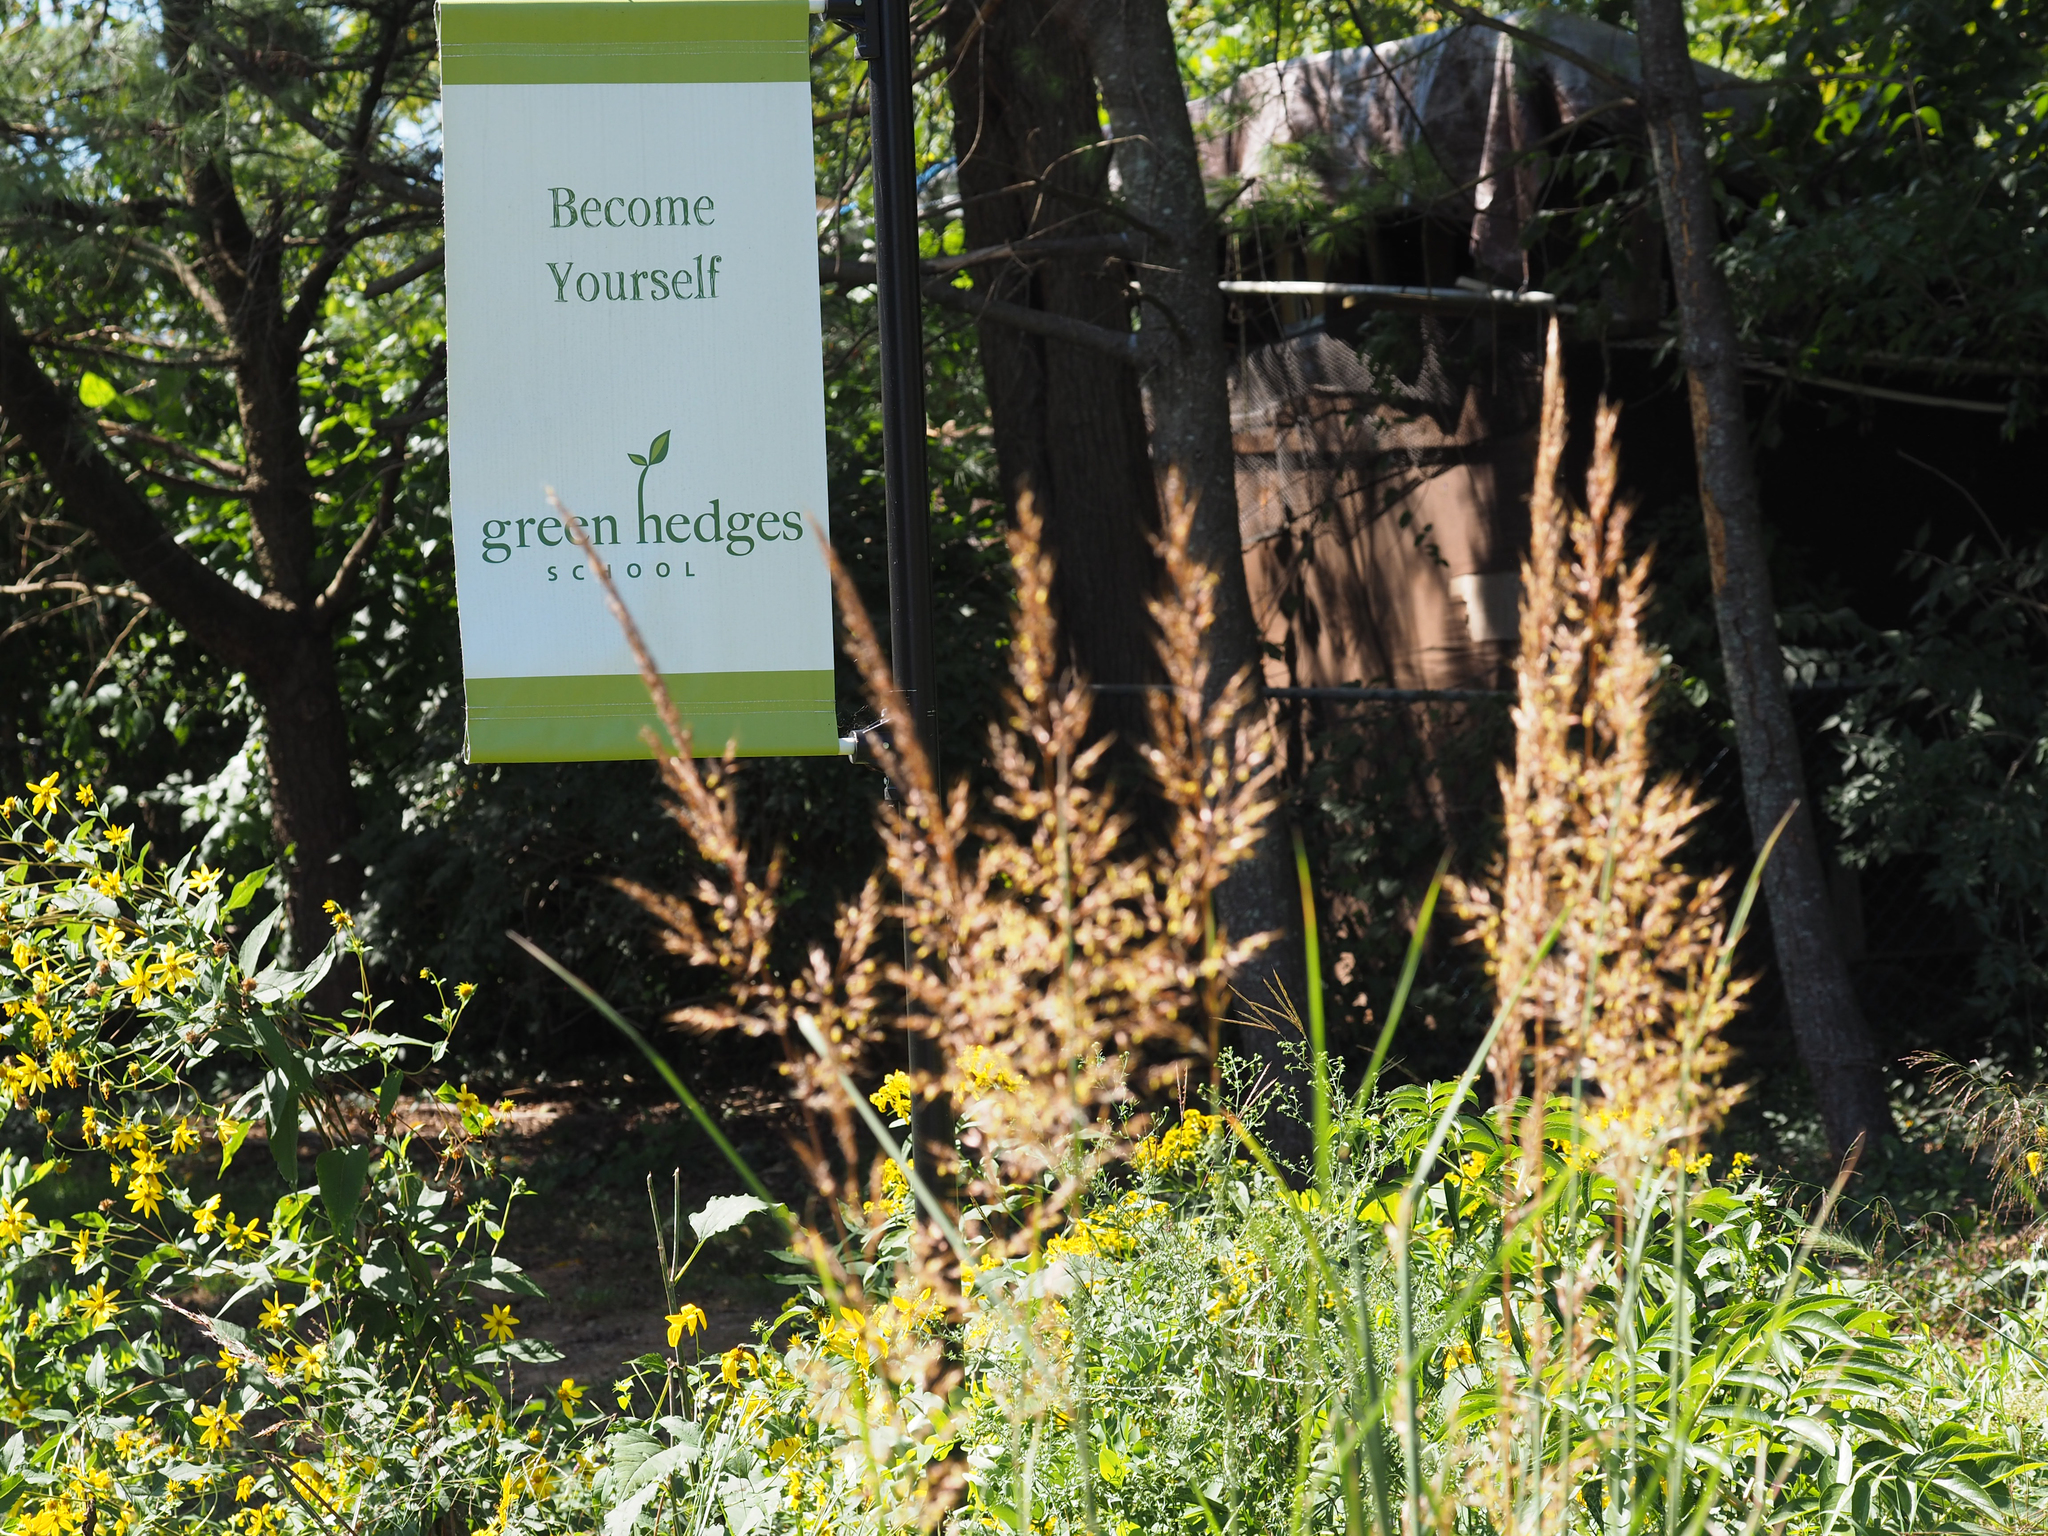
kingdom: Plantae
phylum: Tracheophyta
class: Liliopsida
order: Poales
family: Poaceae
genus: Sorghastrum
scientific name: Sorghastrum nutans
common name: Indian grass
